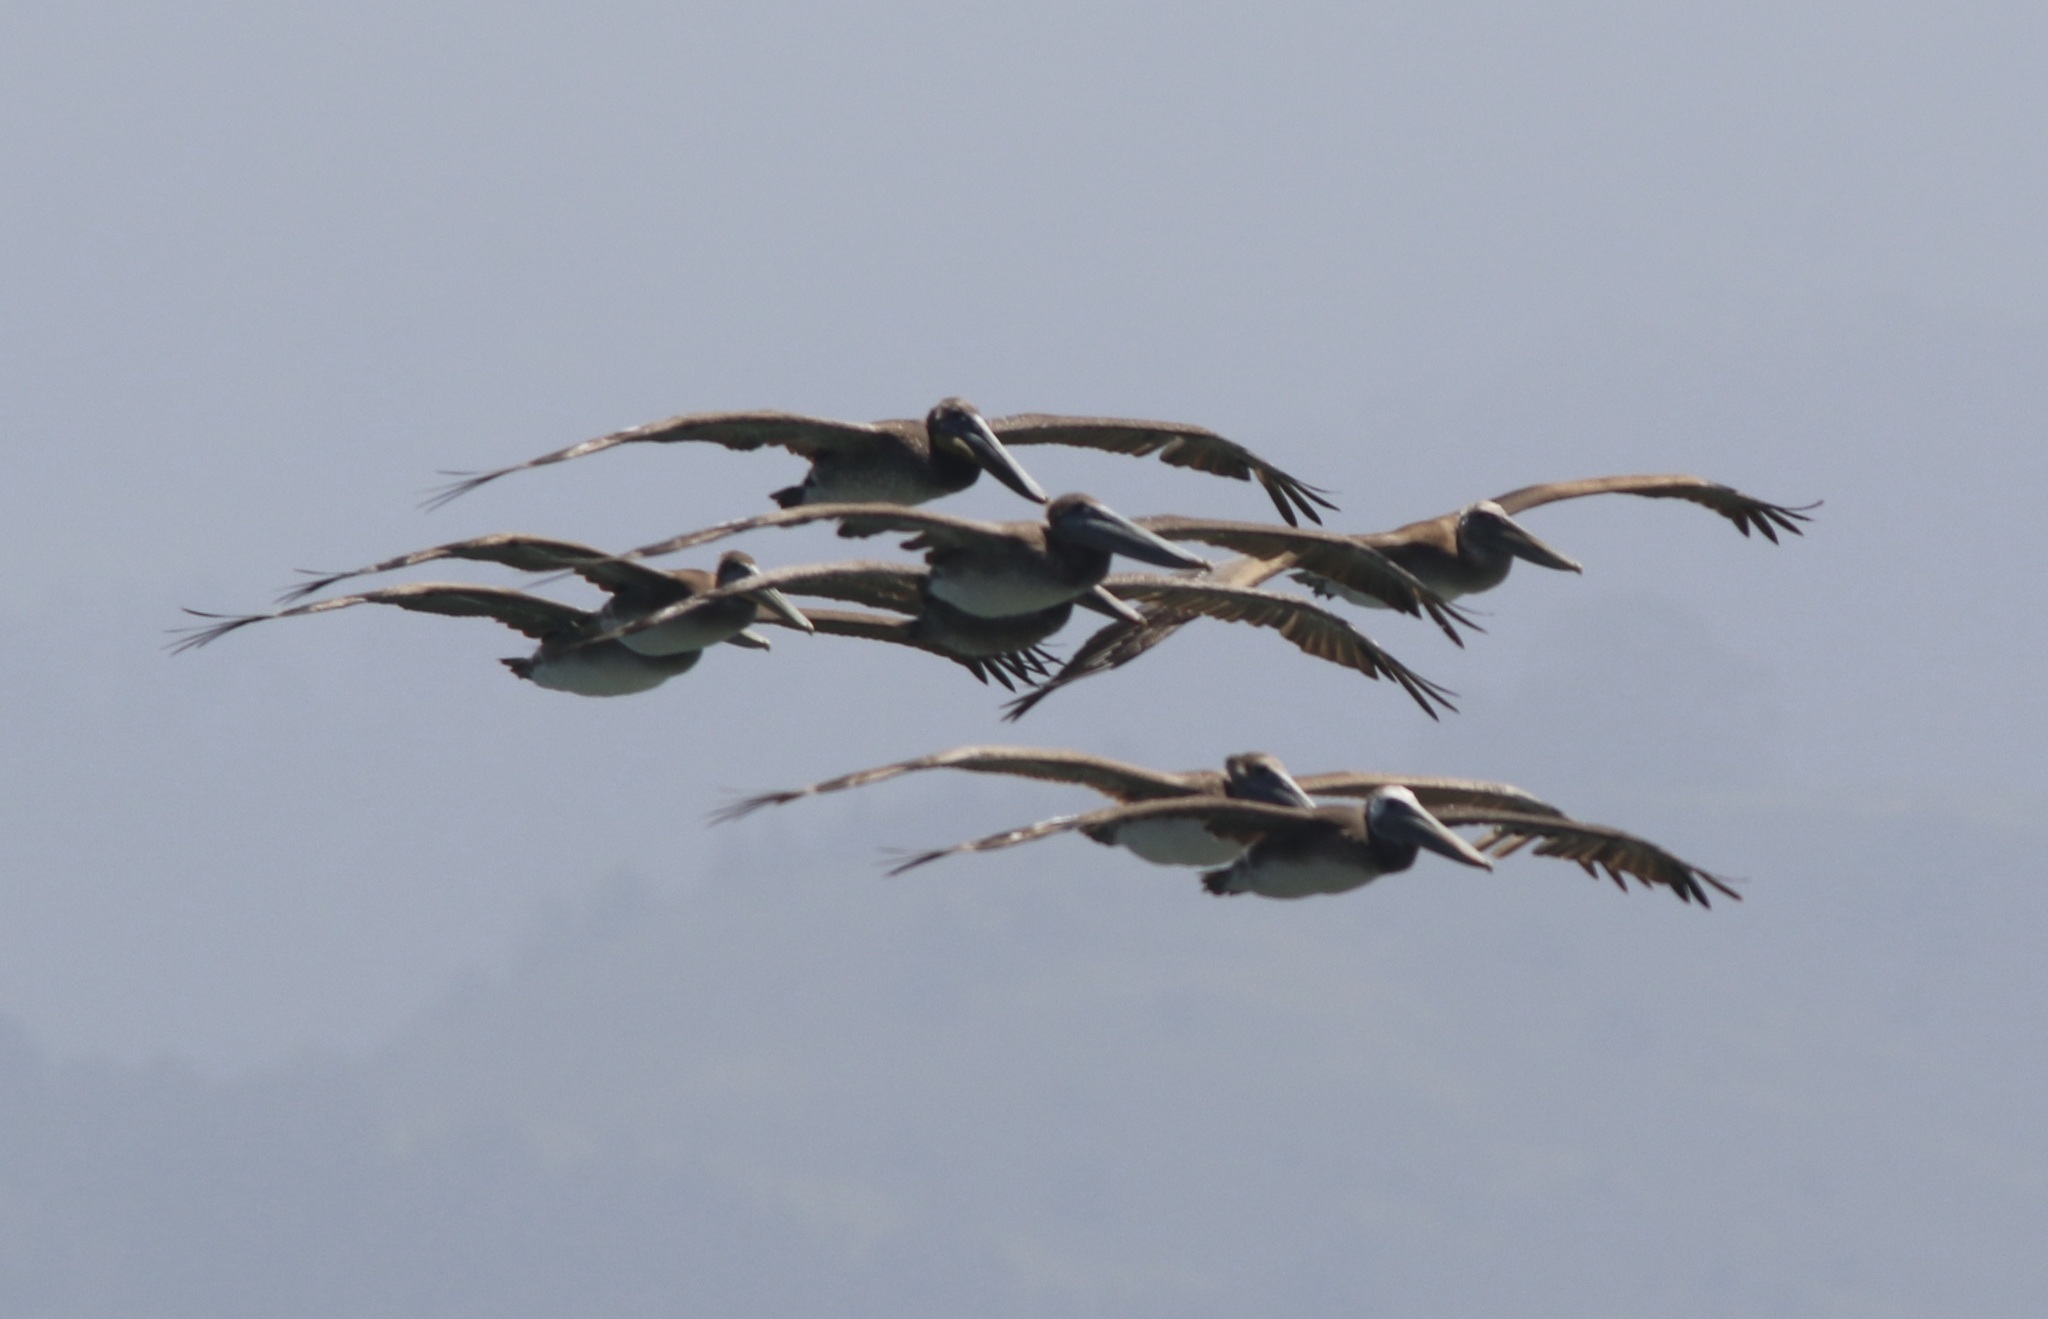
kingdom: Animalia
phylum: Chordata
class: Aves
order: Pelecaniformes
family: Pelecanidae
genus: Pelecanus
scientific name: Pelecanus occidentalis
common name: Brown pelican
